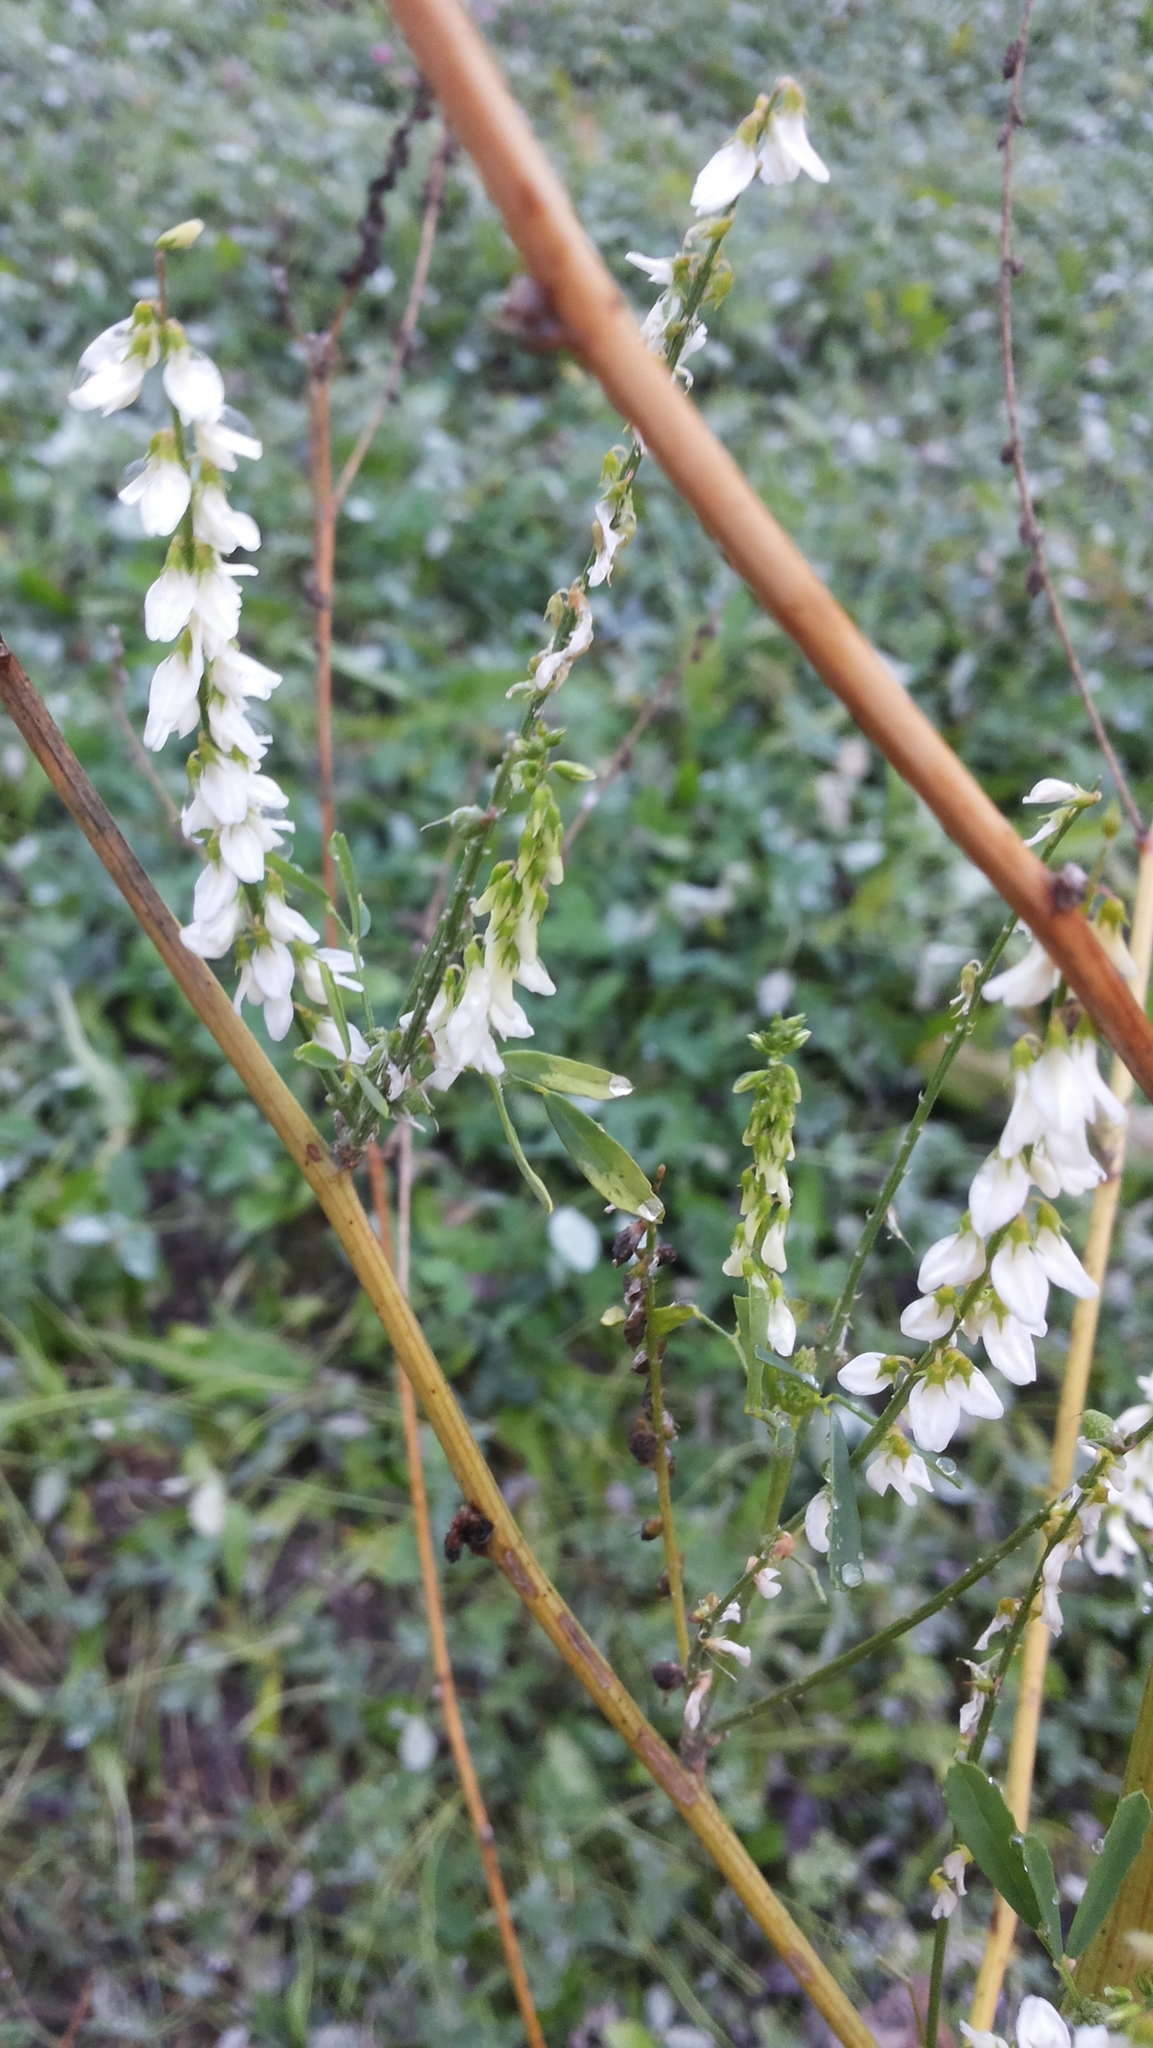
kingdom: Plantae
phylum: Tracheophyta
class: Magnoliopsida
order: Fabales
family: Fabaceae
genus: Melilotus
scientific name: Melilotus albus
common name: White melilot
